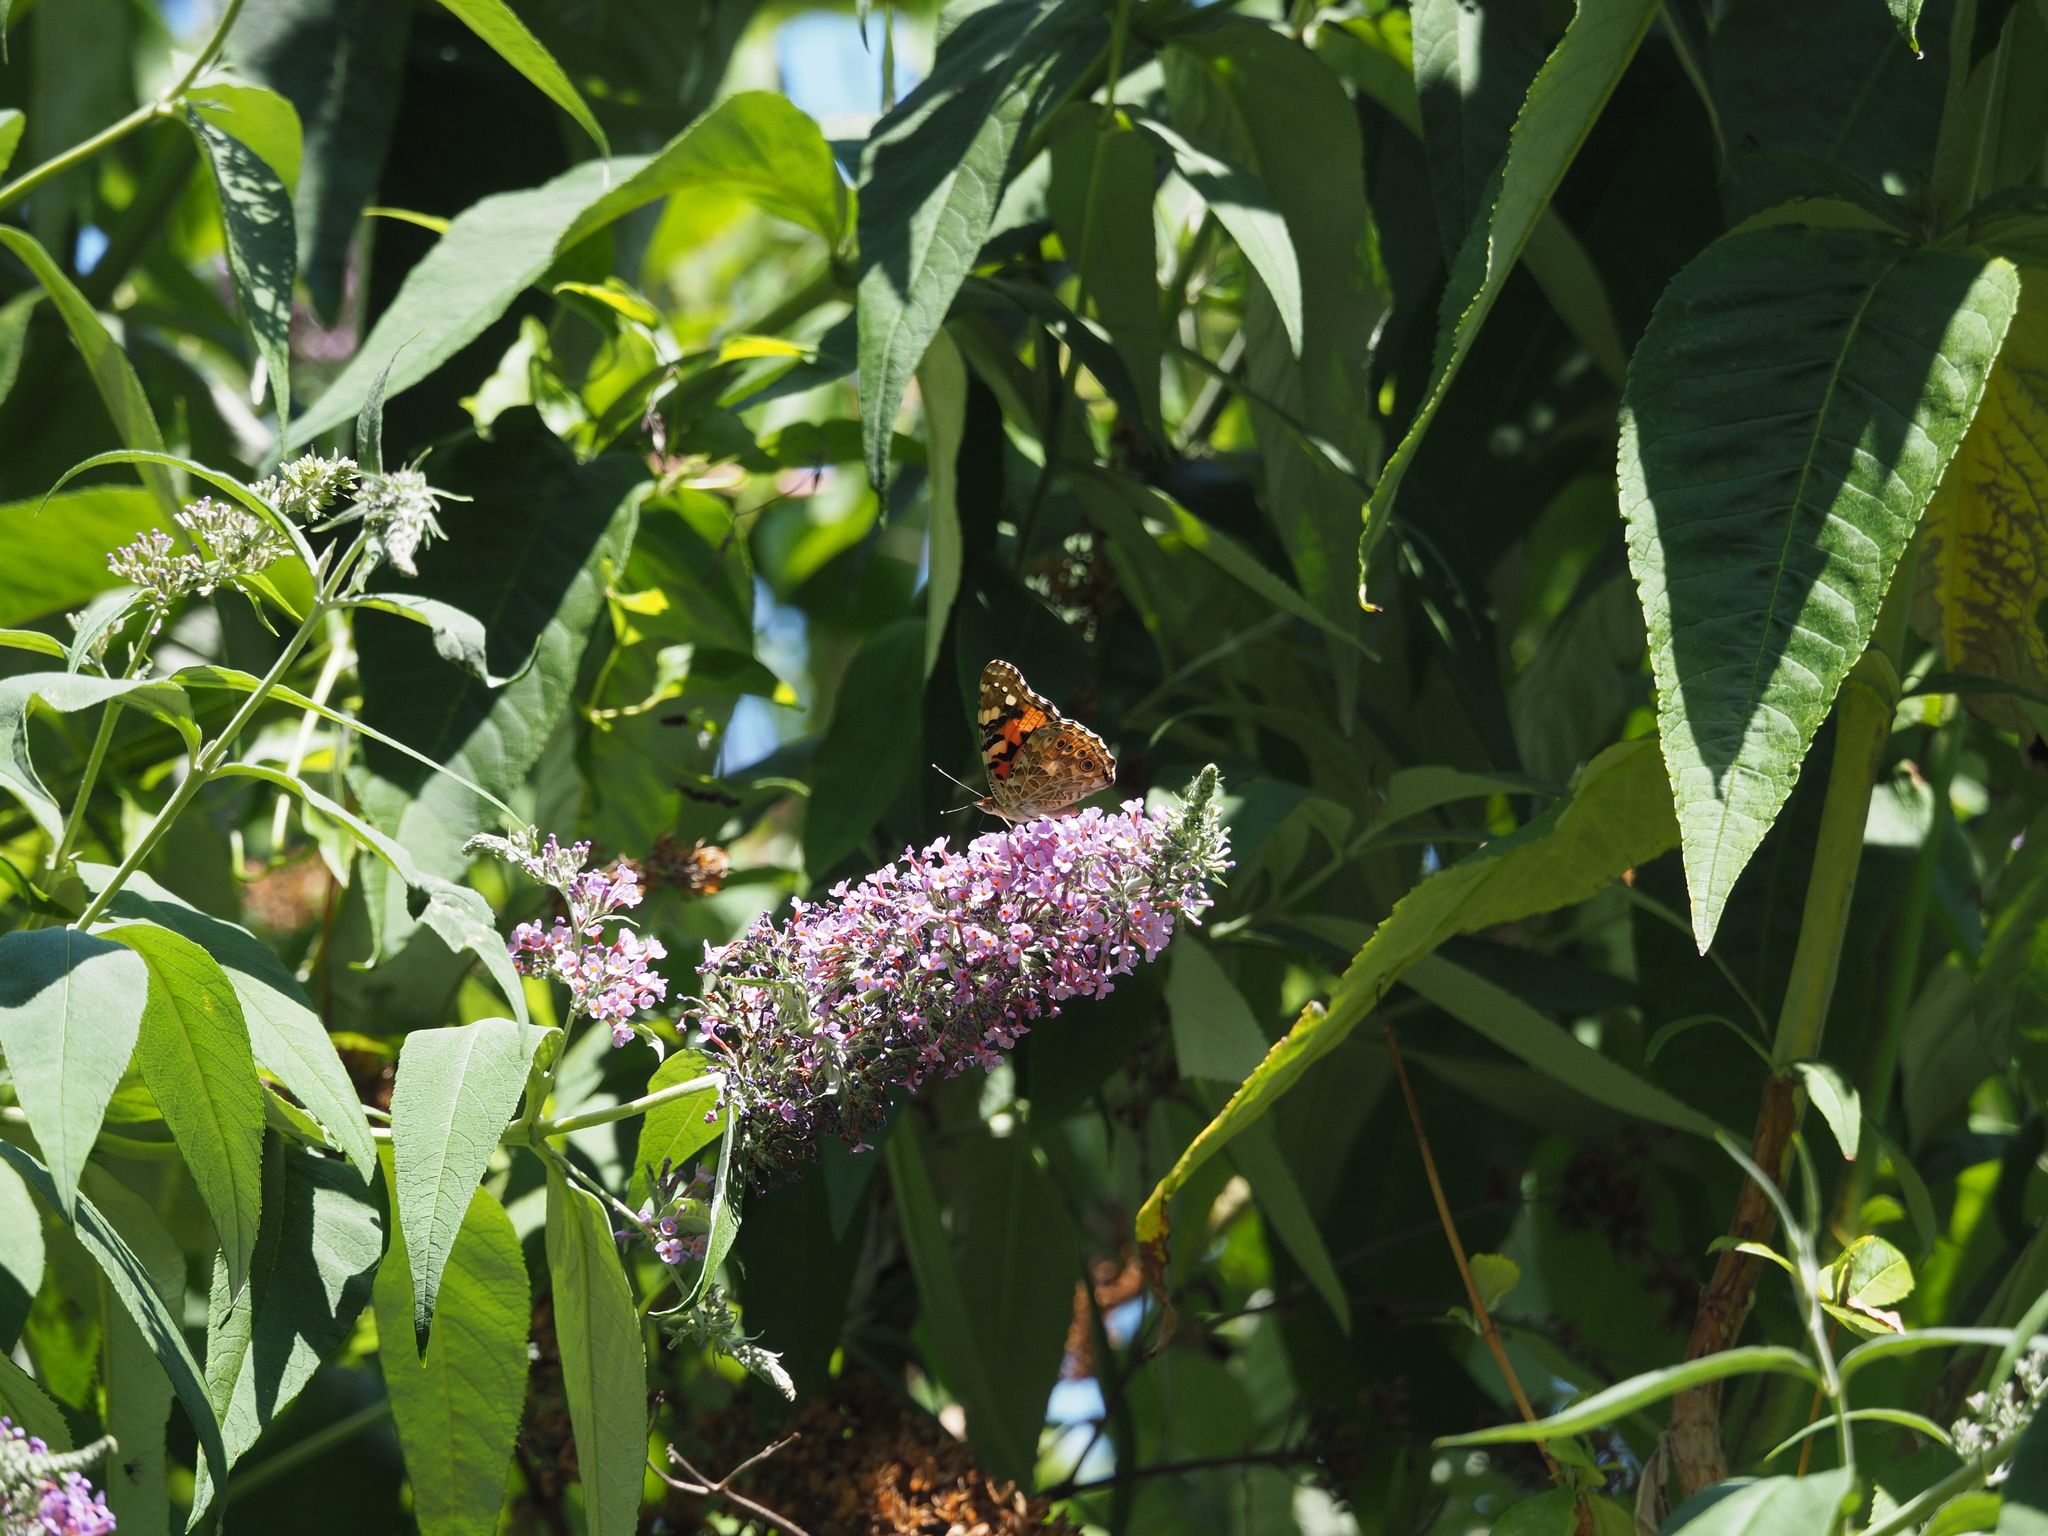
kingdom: Animalia
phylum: Arthropoda
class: Insecta
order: Lepidoptera
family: Nymphalidae
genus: Vanessa
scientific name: Vanessa cardui
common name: Painted lady
